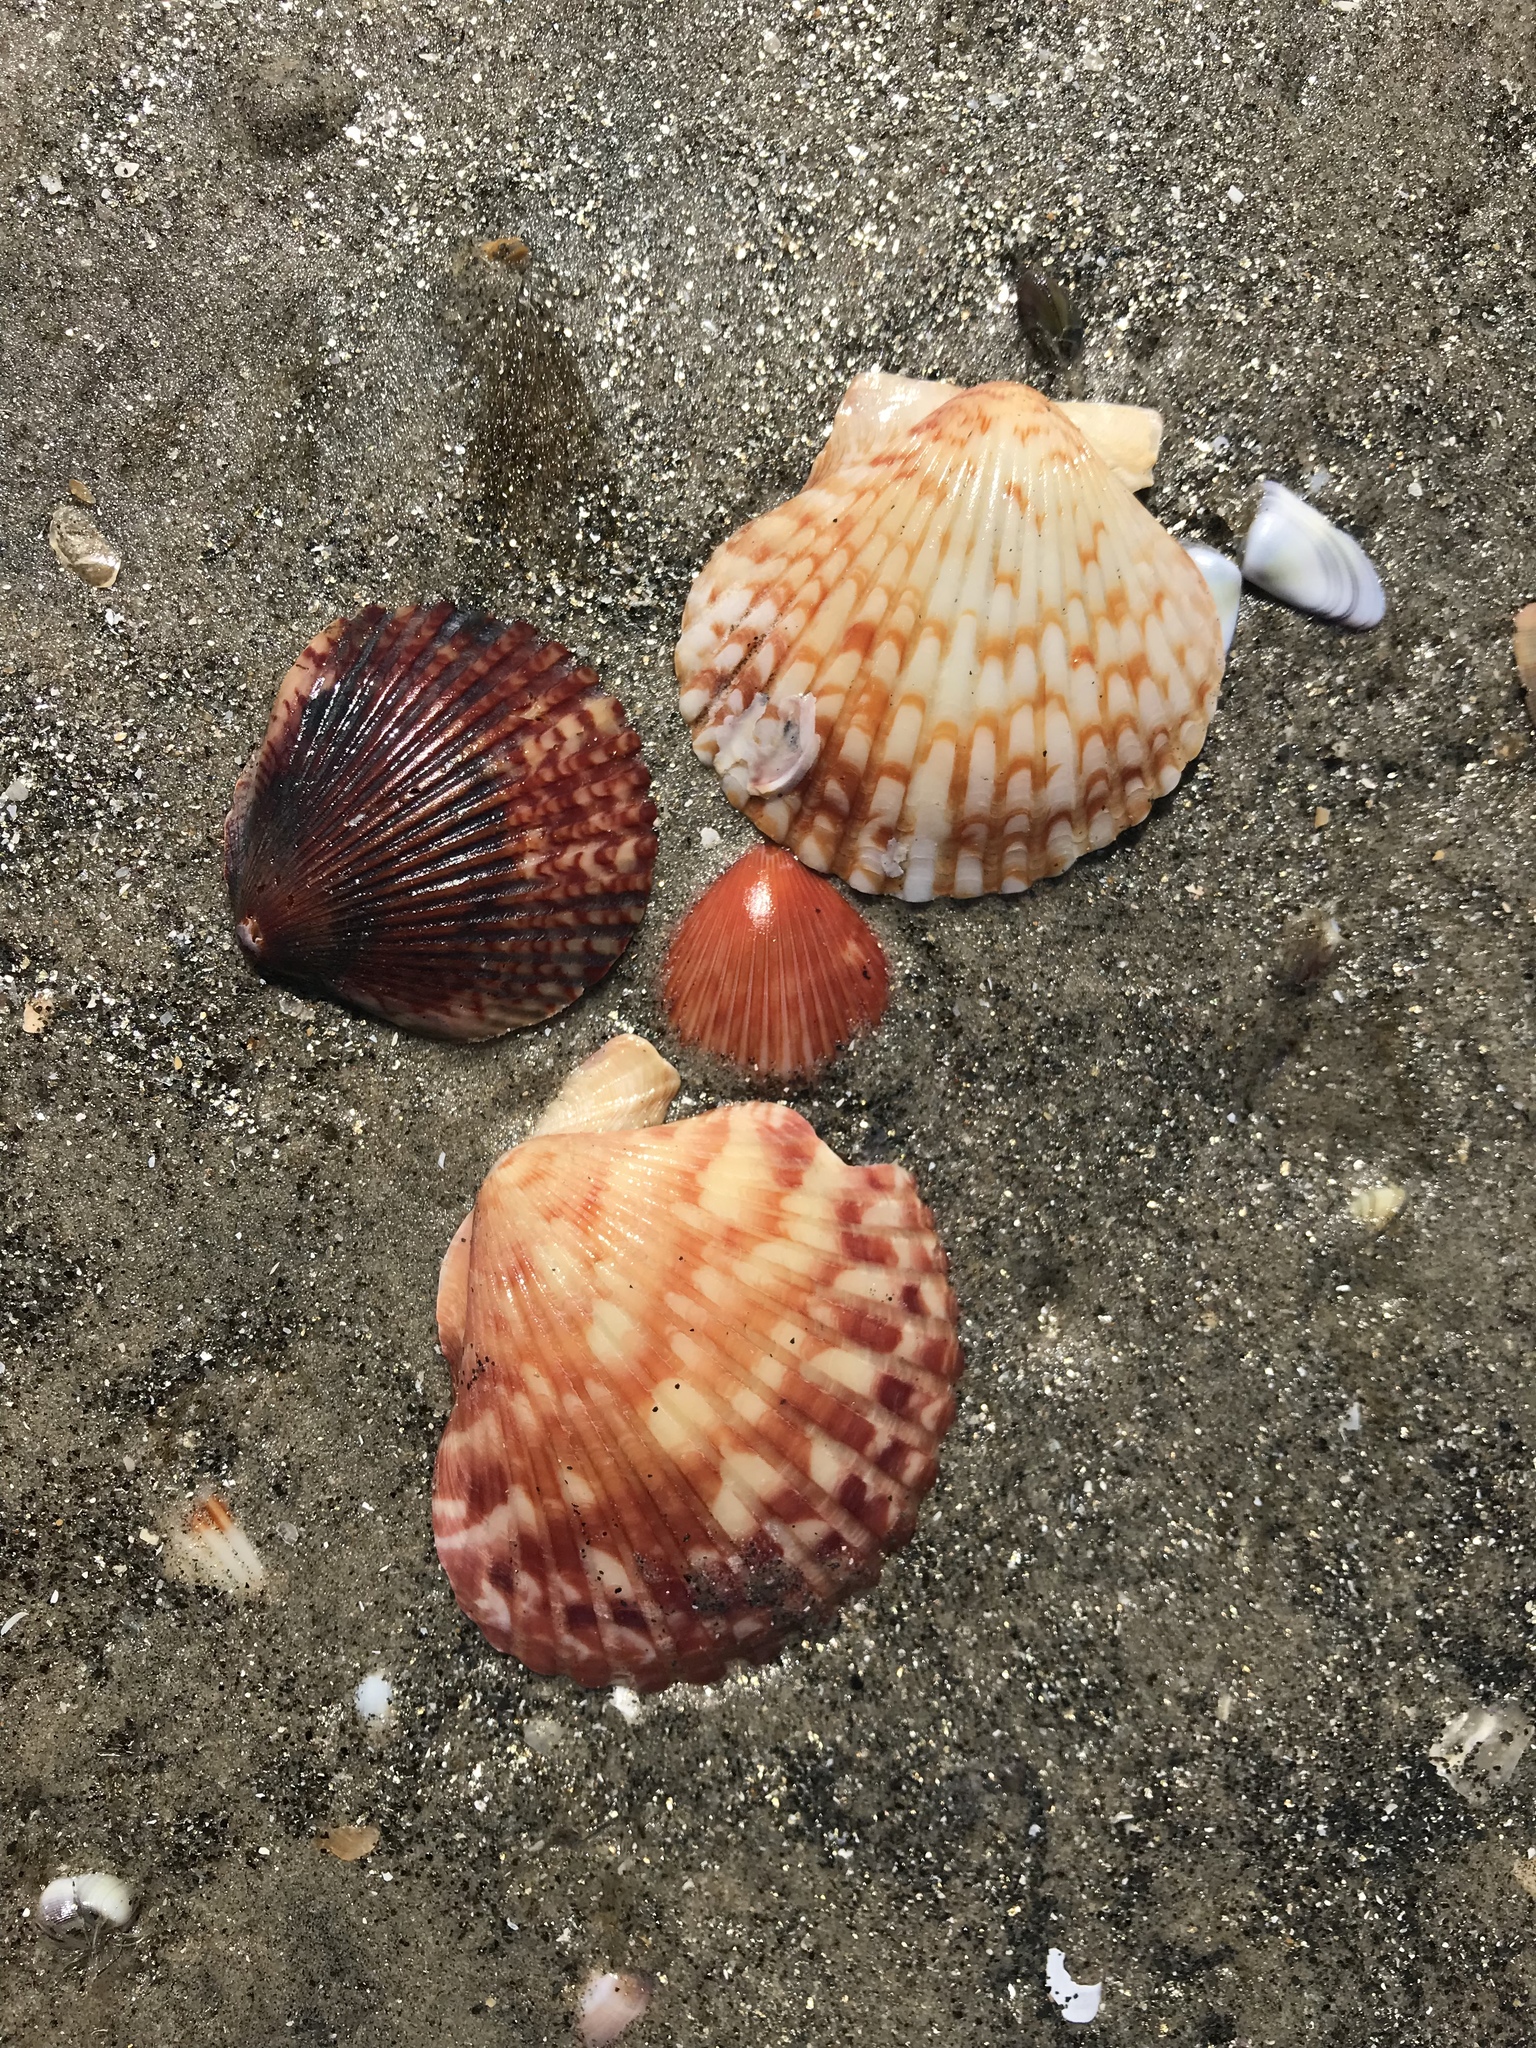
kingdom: Animalia
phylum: Mollusca
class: Bivalvia
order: Pectinida
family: Pectinidae
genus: Argopecten
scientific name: Argopecten ventricosus
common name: Catarina scallop
